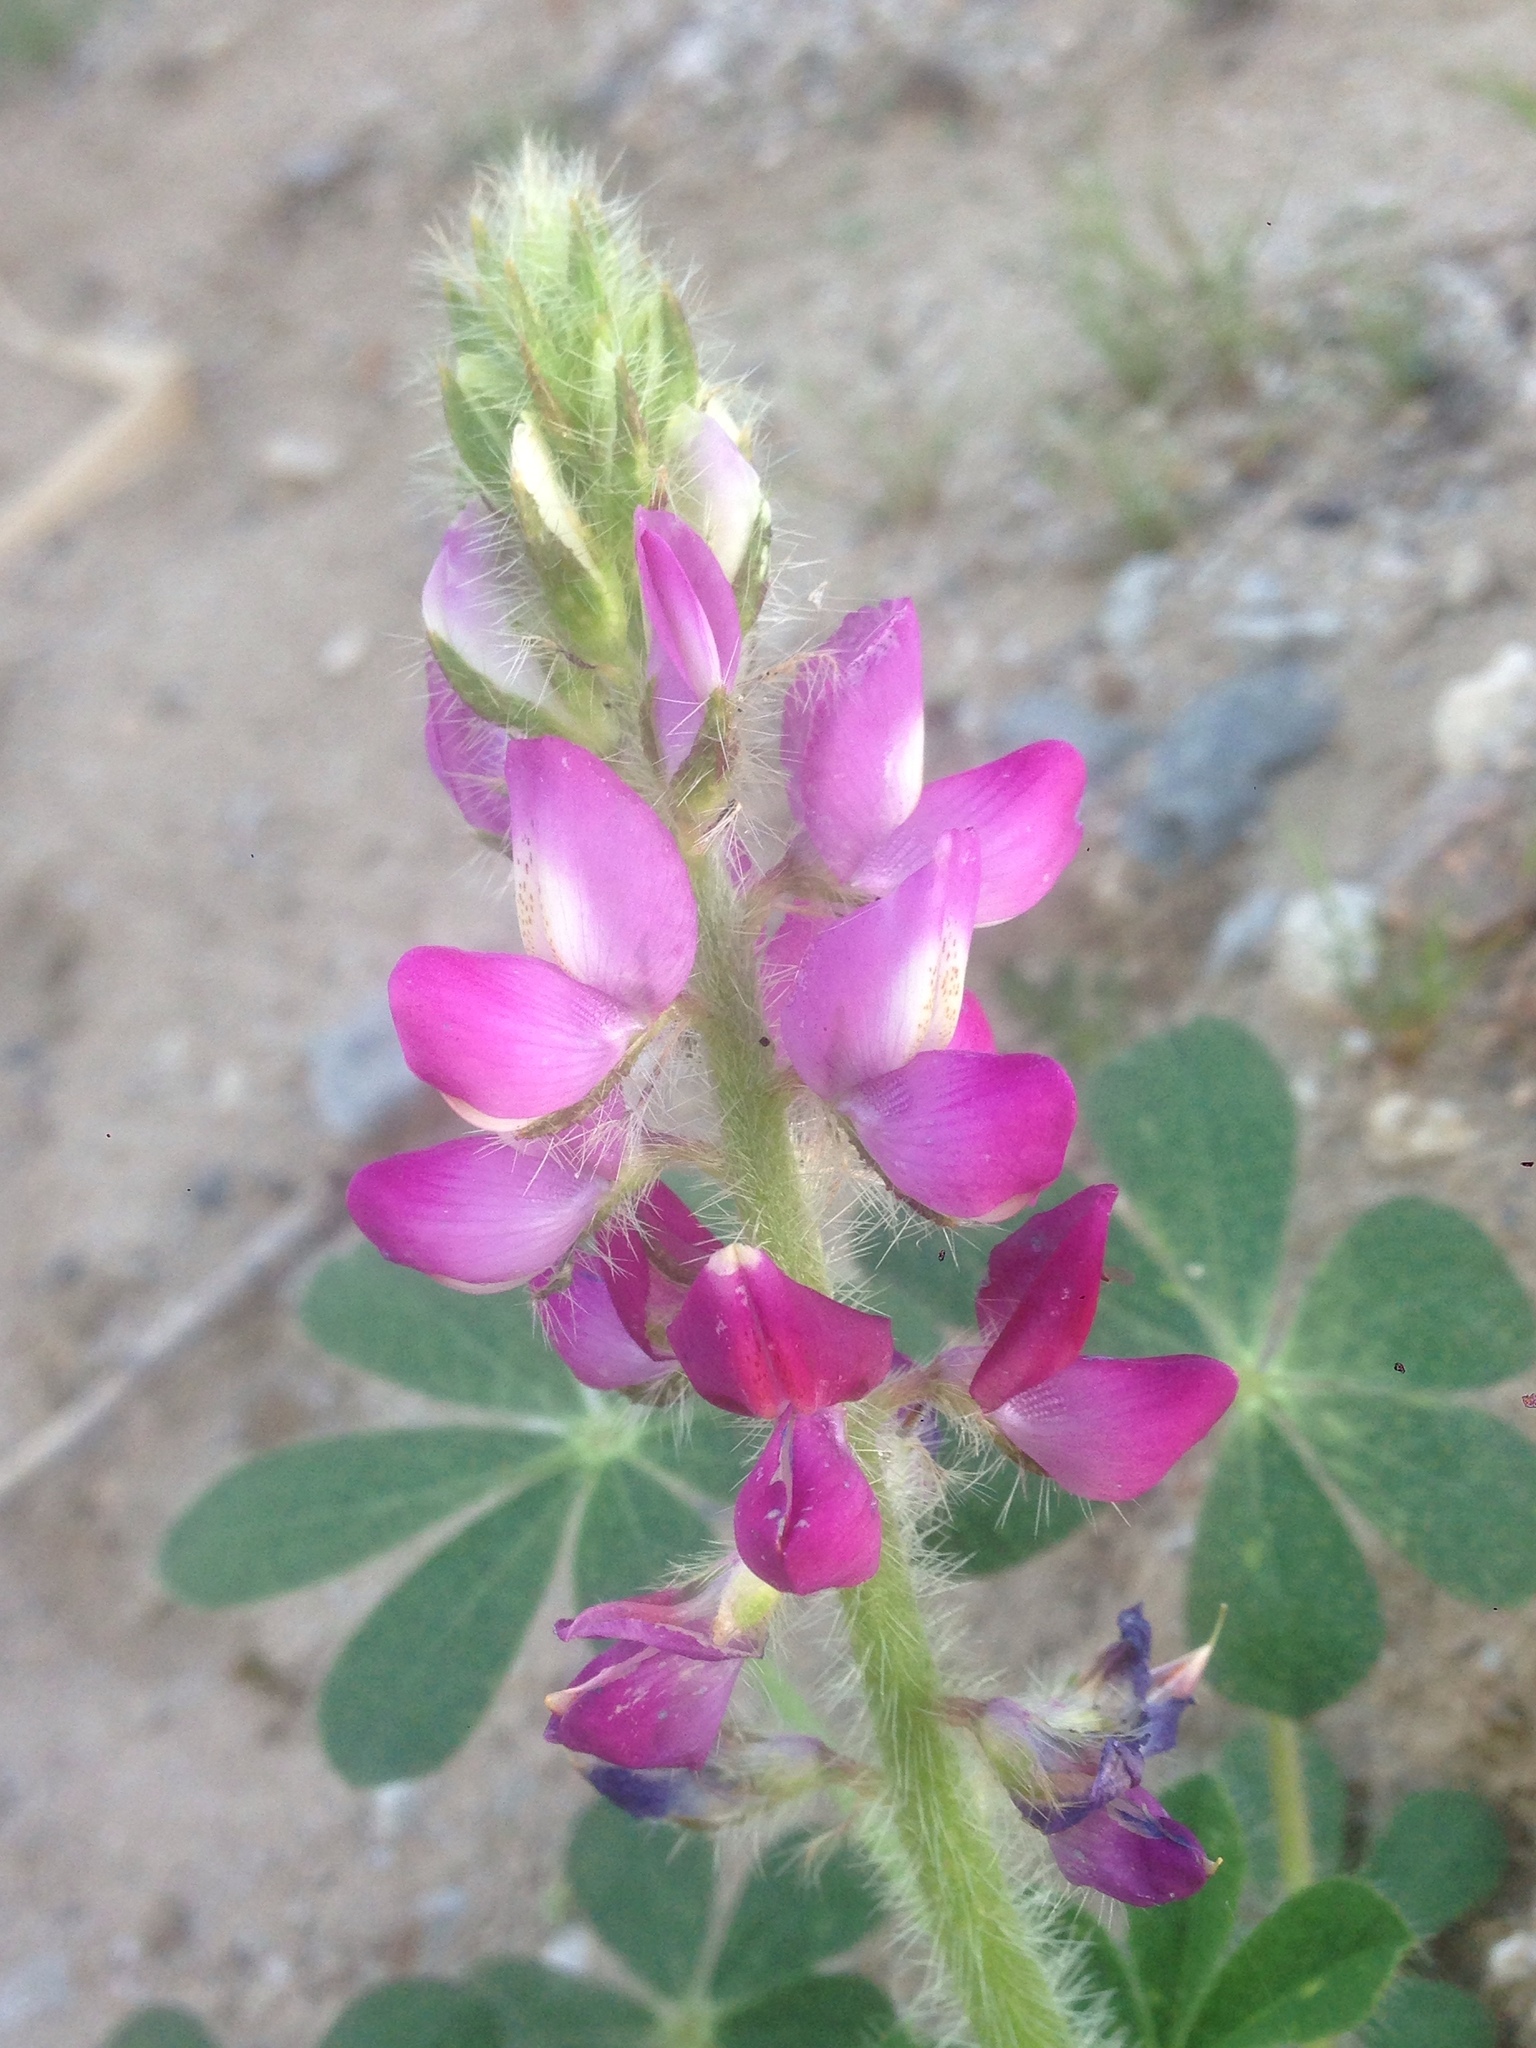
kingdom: Plantae
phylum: Tracheophyta
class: Magnoliopsida
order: Fabales
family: Fabaceae
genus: Lupinus
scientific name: Lupinus hirsutissimus
